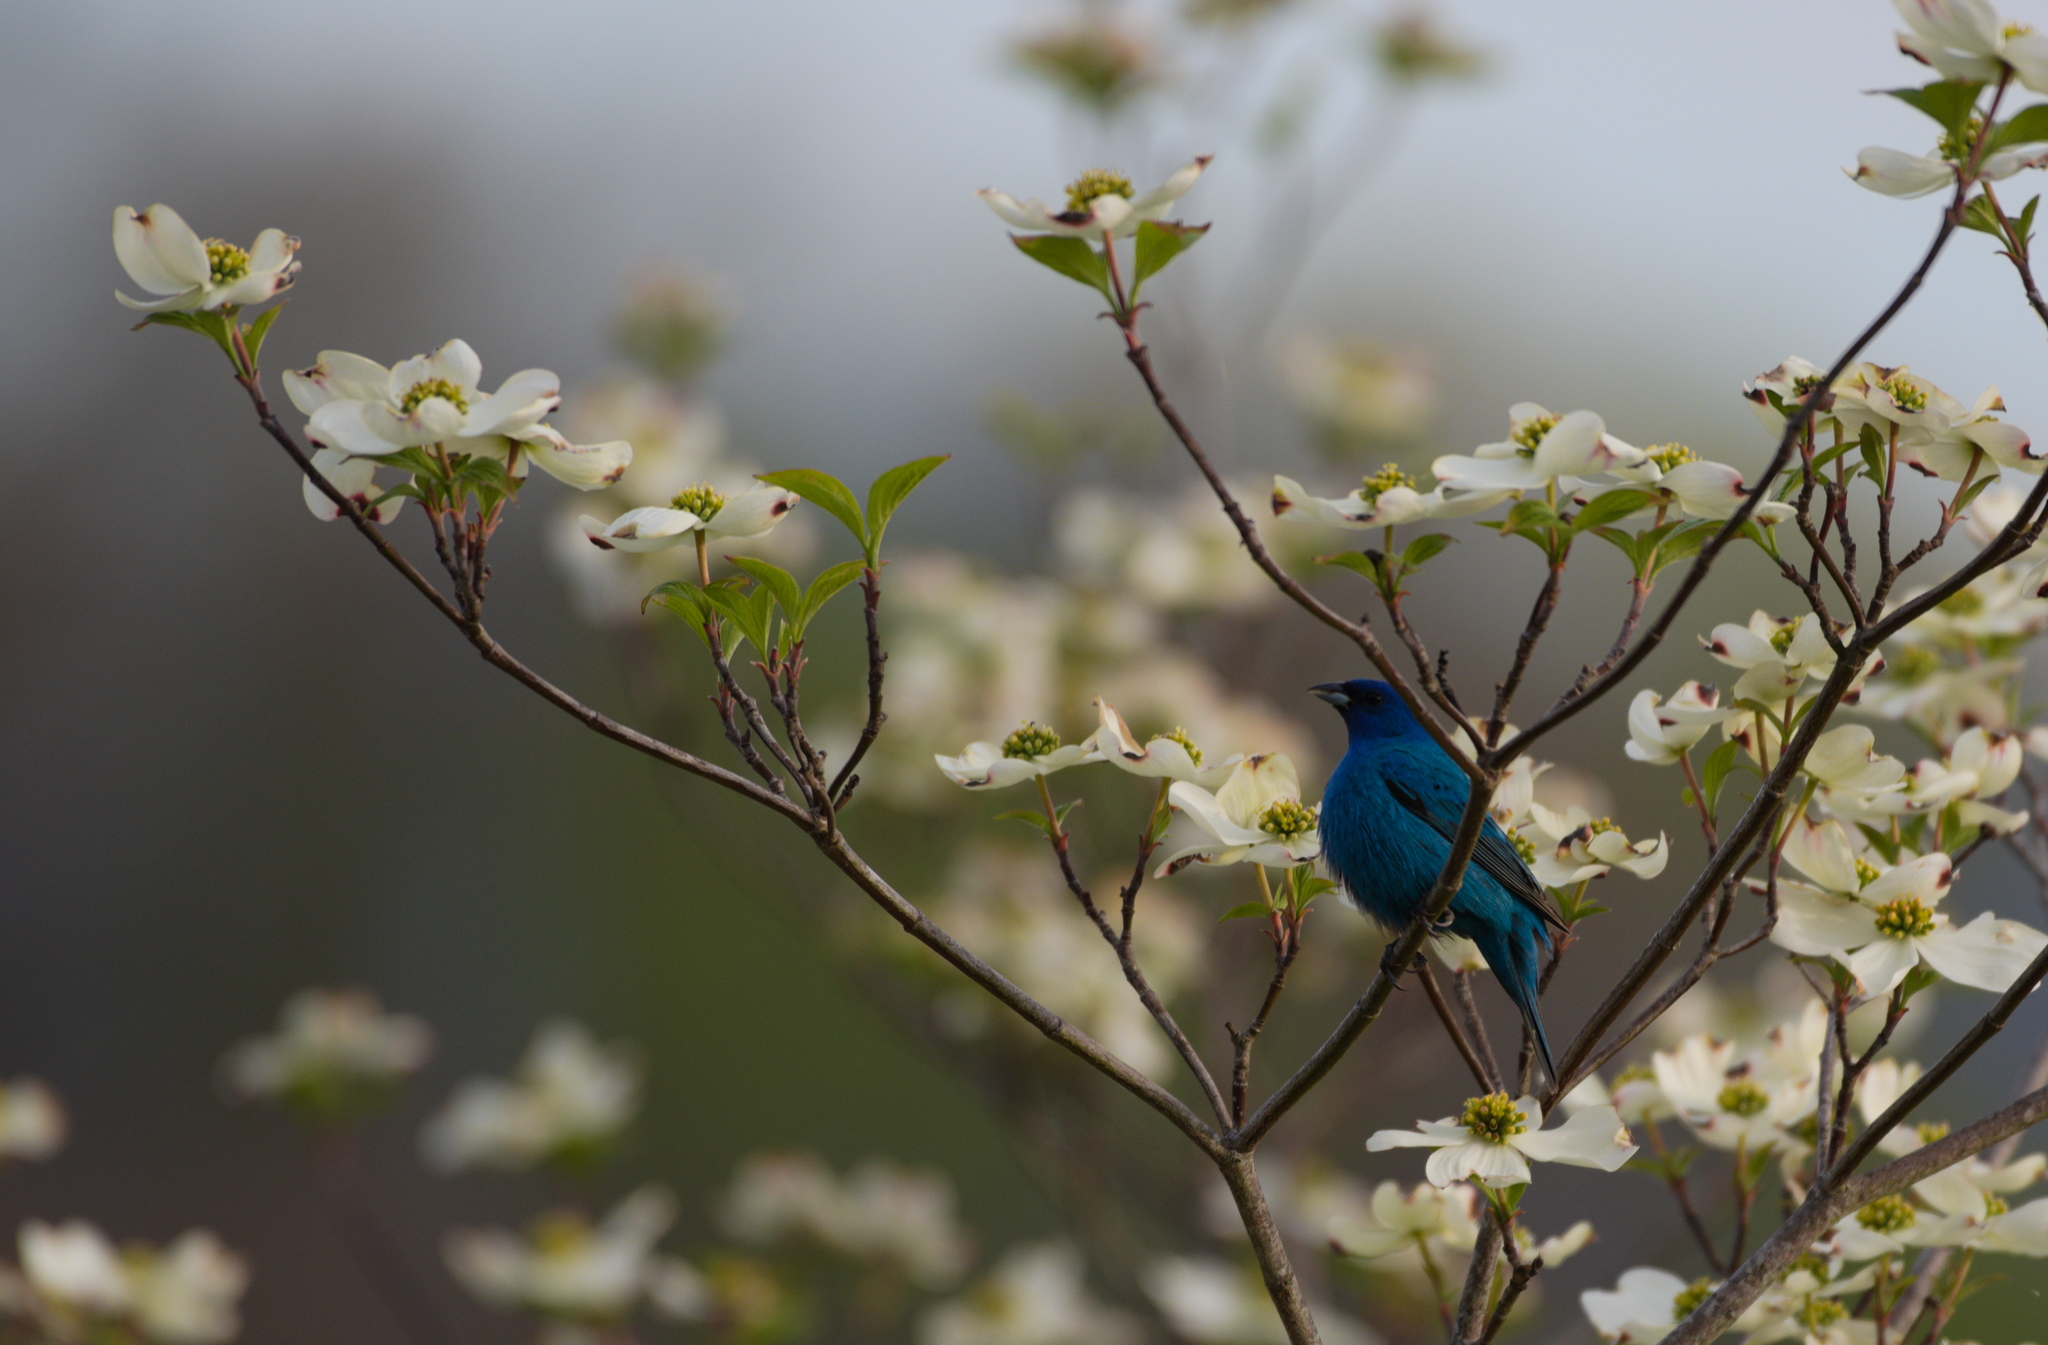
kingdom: Animalia
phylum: Chordata
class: Aves
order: Passeriformes
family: Cardinalidae
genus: Passerina
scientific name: Passerina cyanea
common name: Indigo bunting
